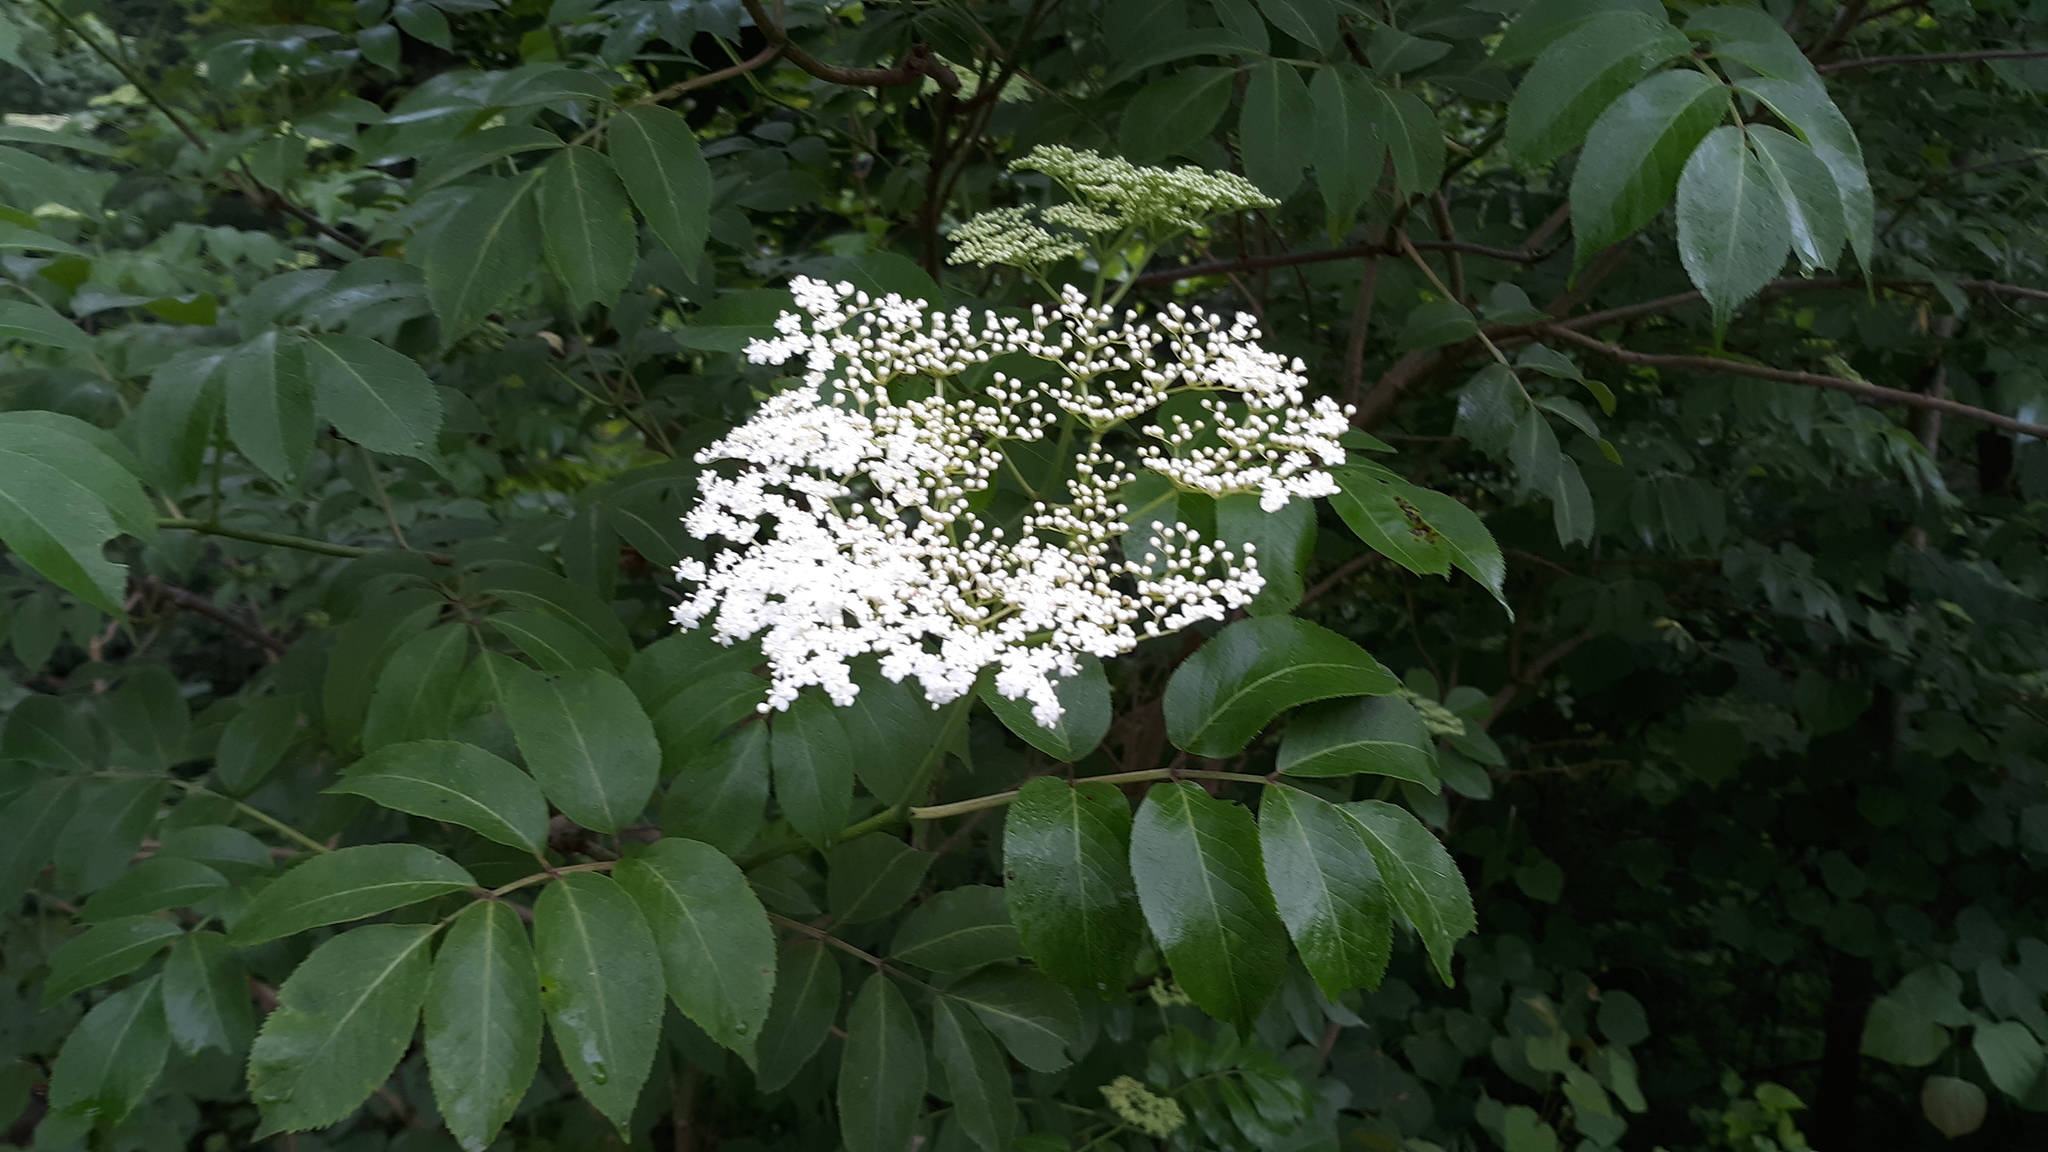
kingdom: Plantae
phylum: Tracheophyta
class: Magnoliopsida
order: Dipsacales
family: Viburnaceae
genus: Sambucus
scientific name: Sambucus canadensis
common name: American elder
